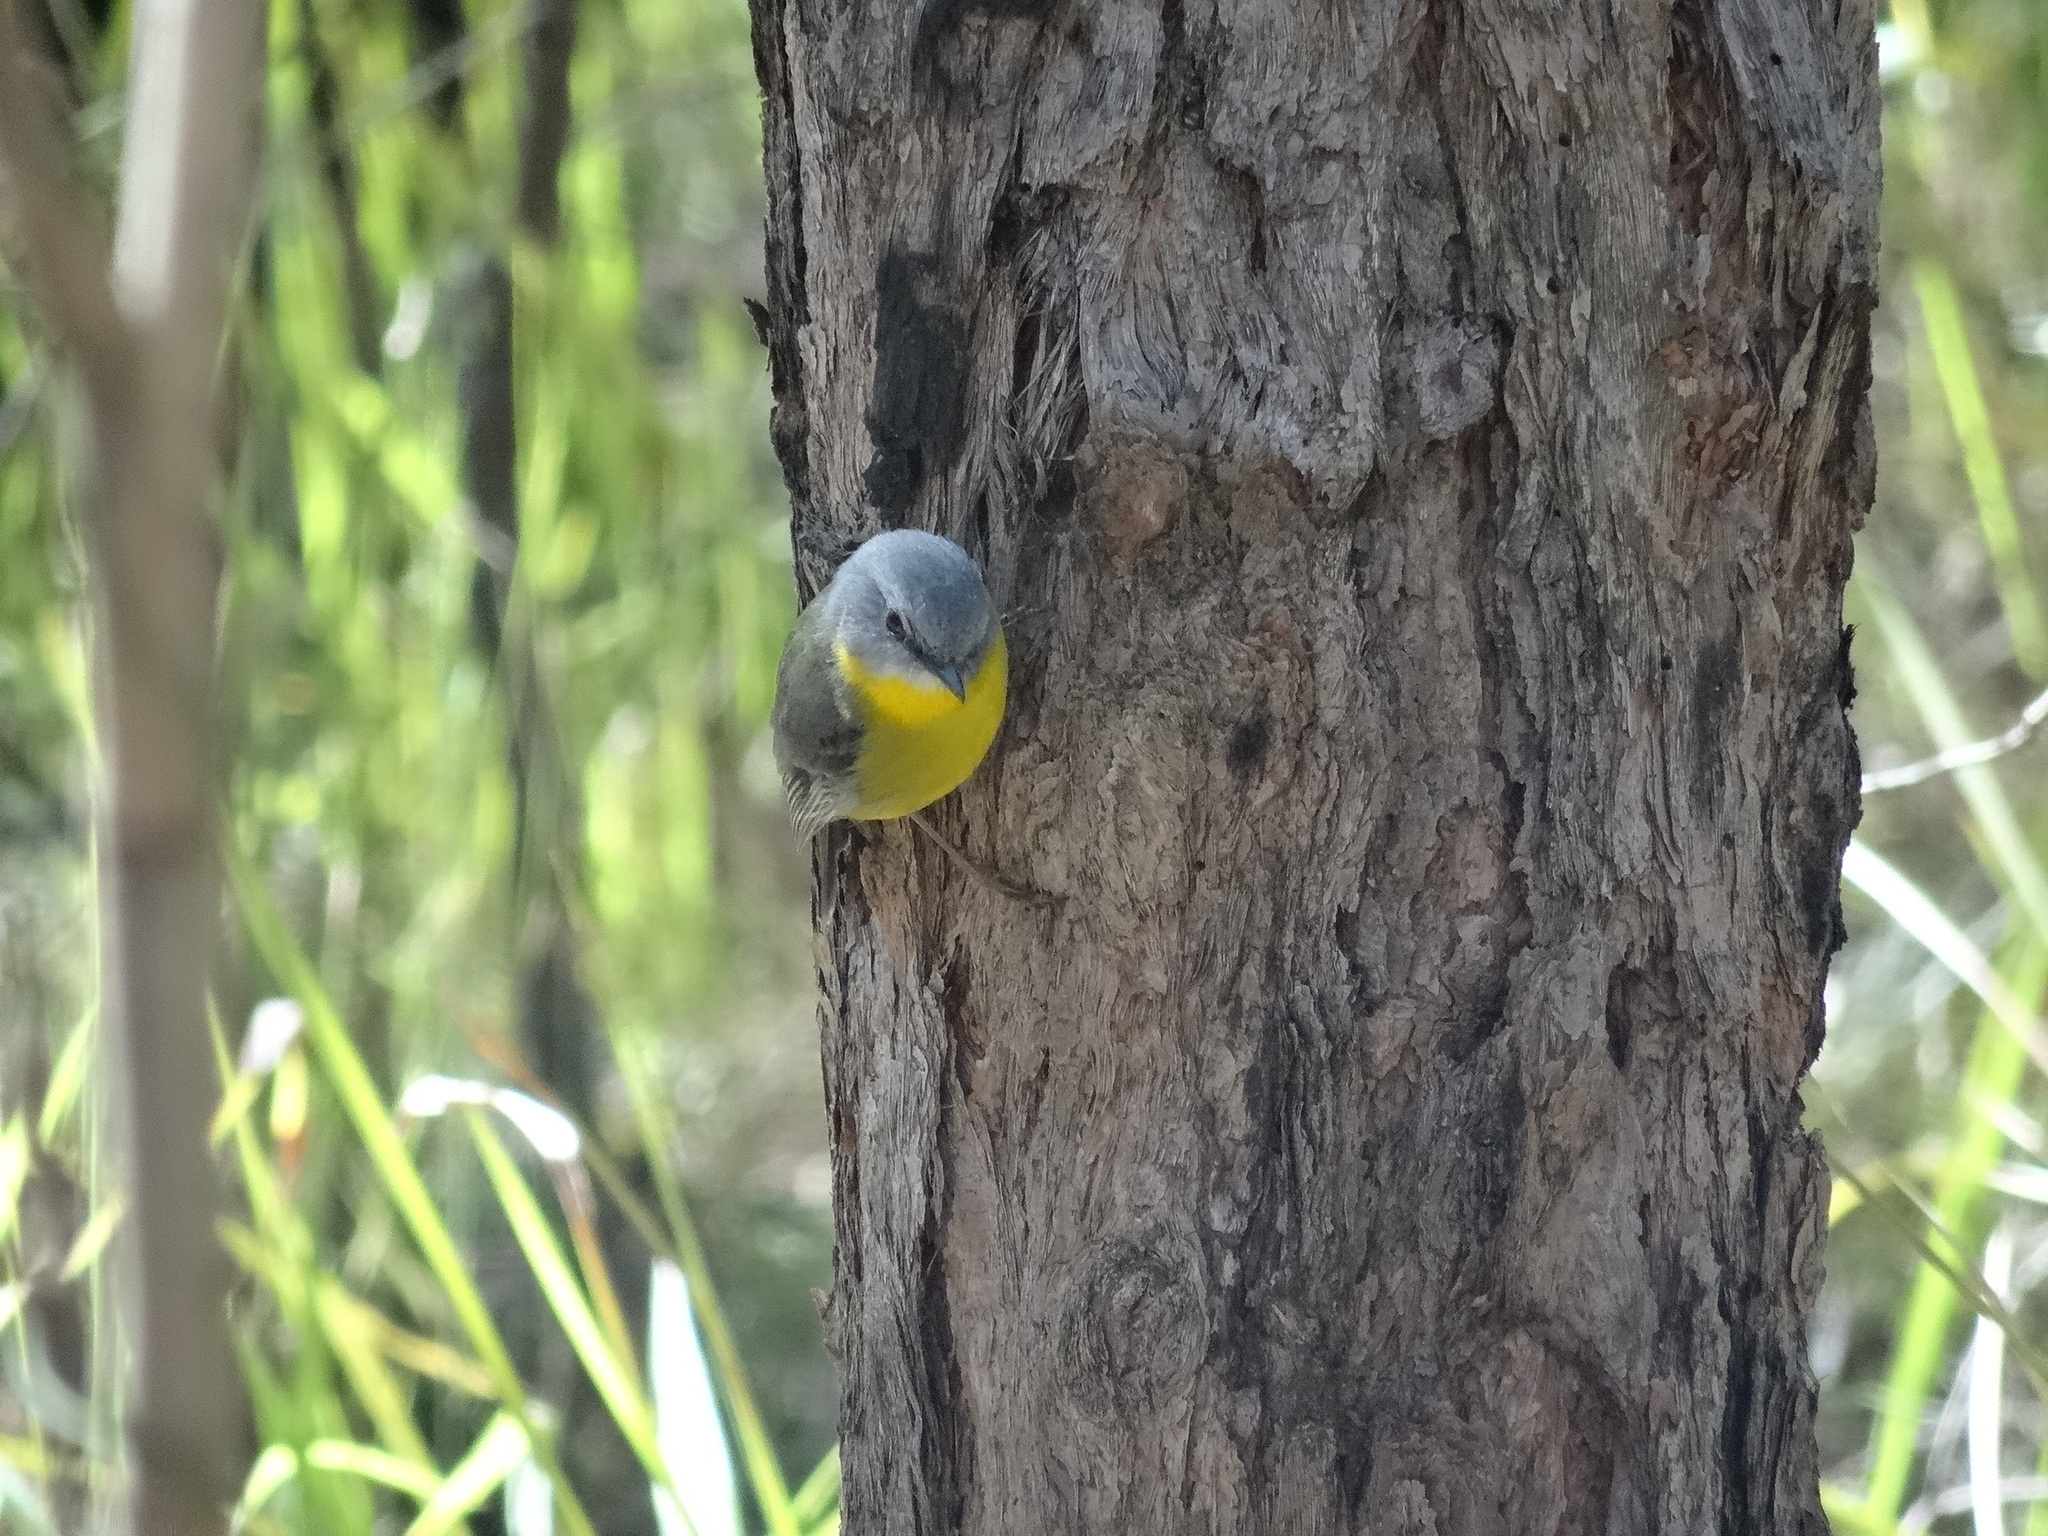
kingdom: Animalia
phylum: Chordata
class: Aves
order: Passeriformes
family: Petroicidae
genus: Eopsaltria
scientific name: Eopsaltria australis
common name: Eastern yellow robin
